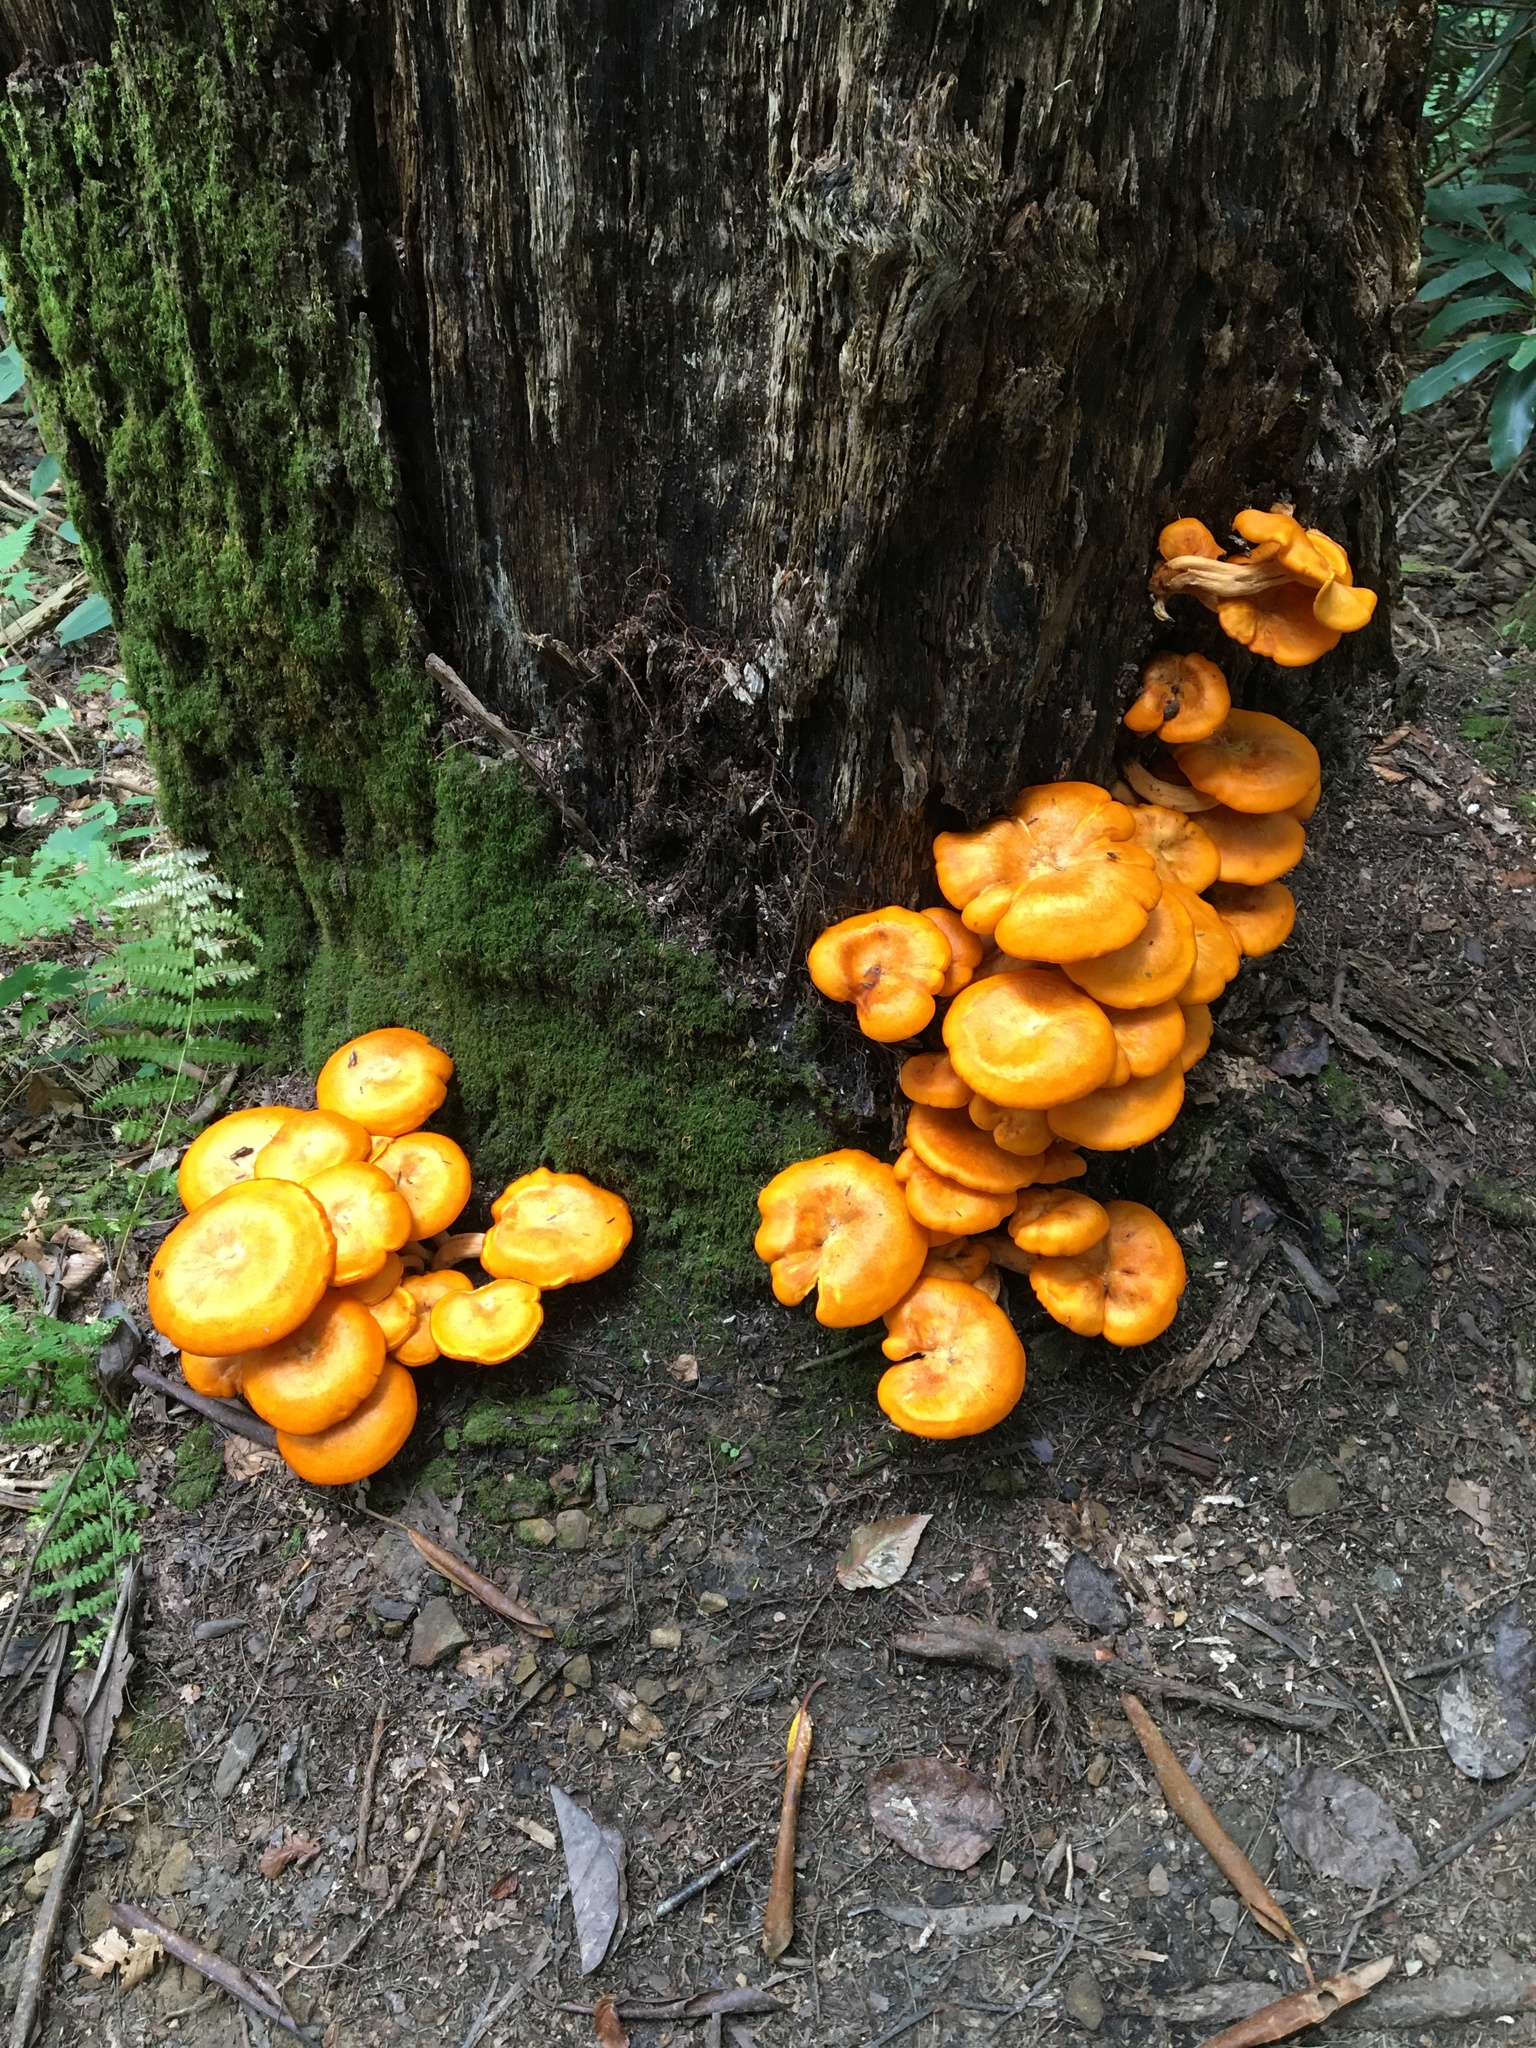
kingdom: Fungi
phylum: Basidiomycota
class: Agaricomycetes
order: Agaricales
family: Omphalotaceae
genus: Omphalotus
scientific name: Omphalotus illudens
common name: Jack o lantern
